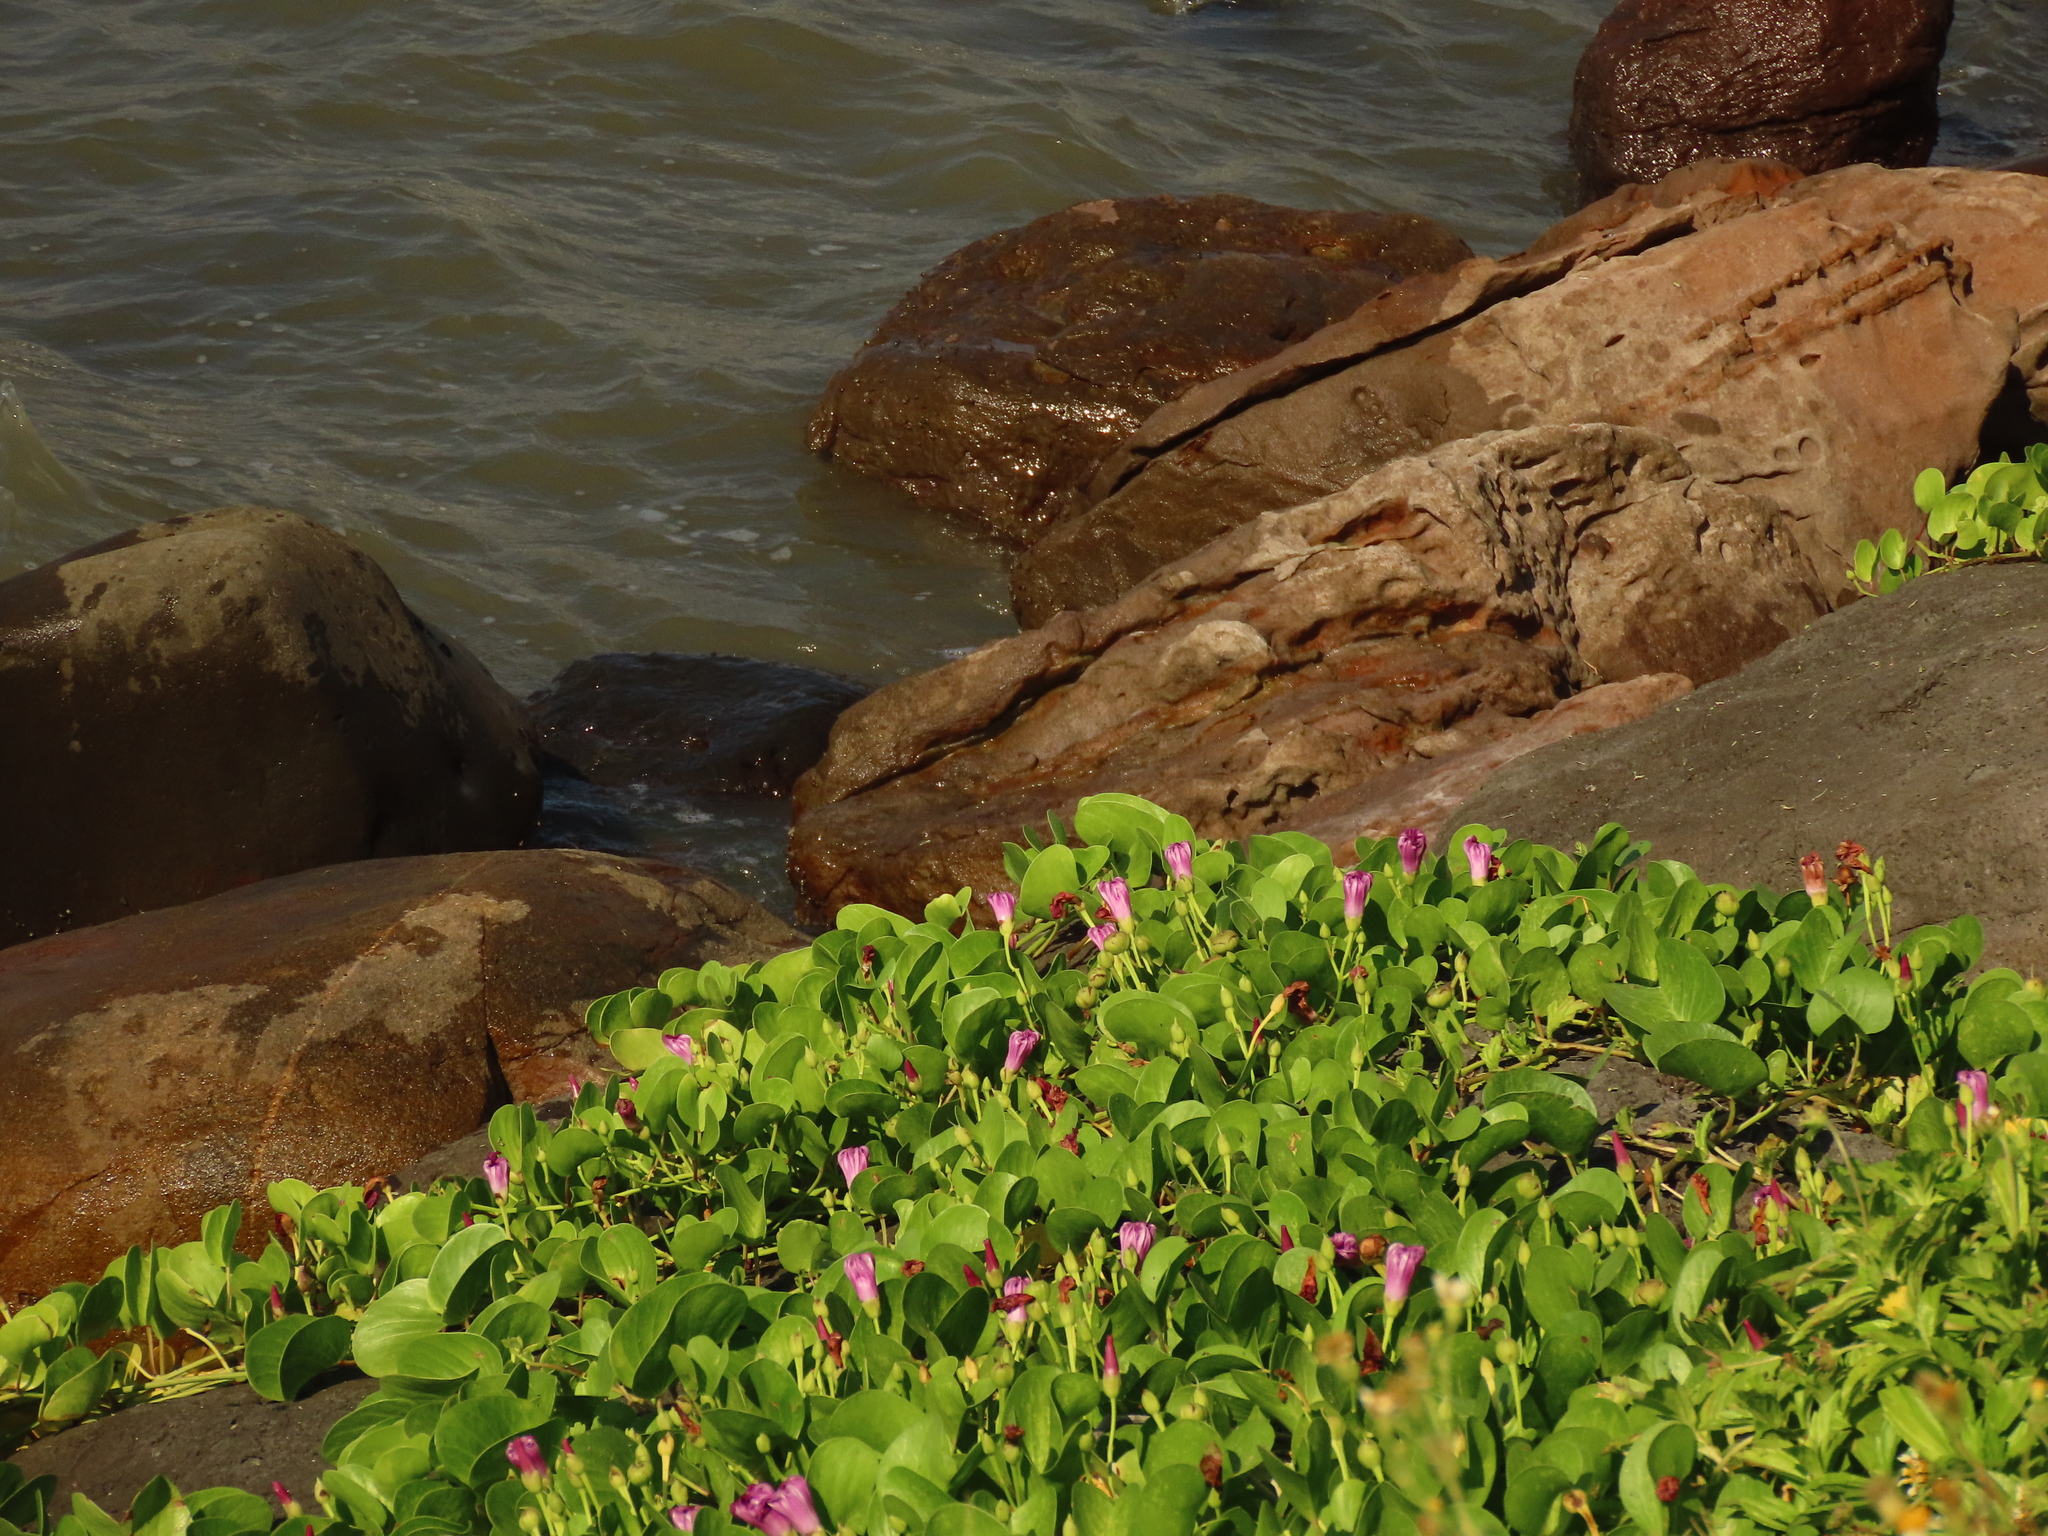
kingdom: Plantae
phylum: Tracheophyta
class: Magnoliopsida
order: Solanales
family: Convolvulaceae
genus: Ipomoea
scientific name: Ipomoea pes-caprae
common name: Beach morning glory
